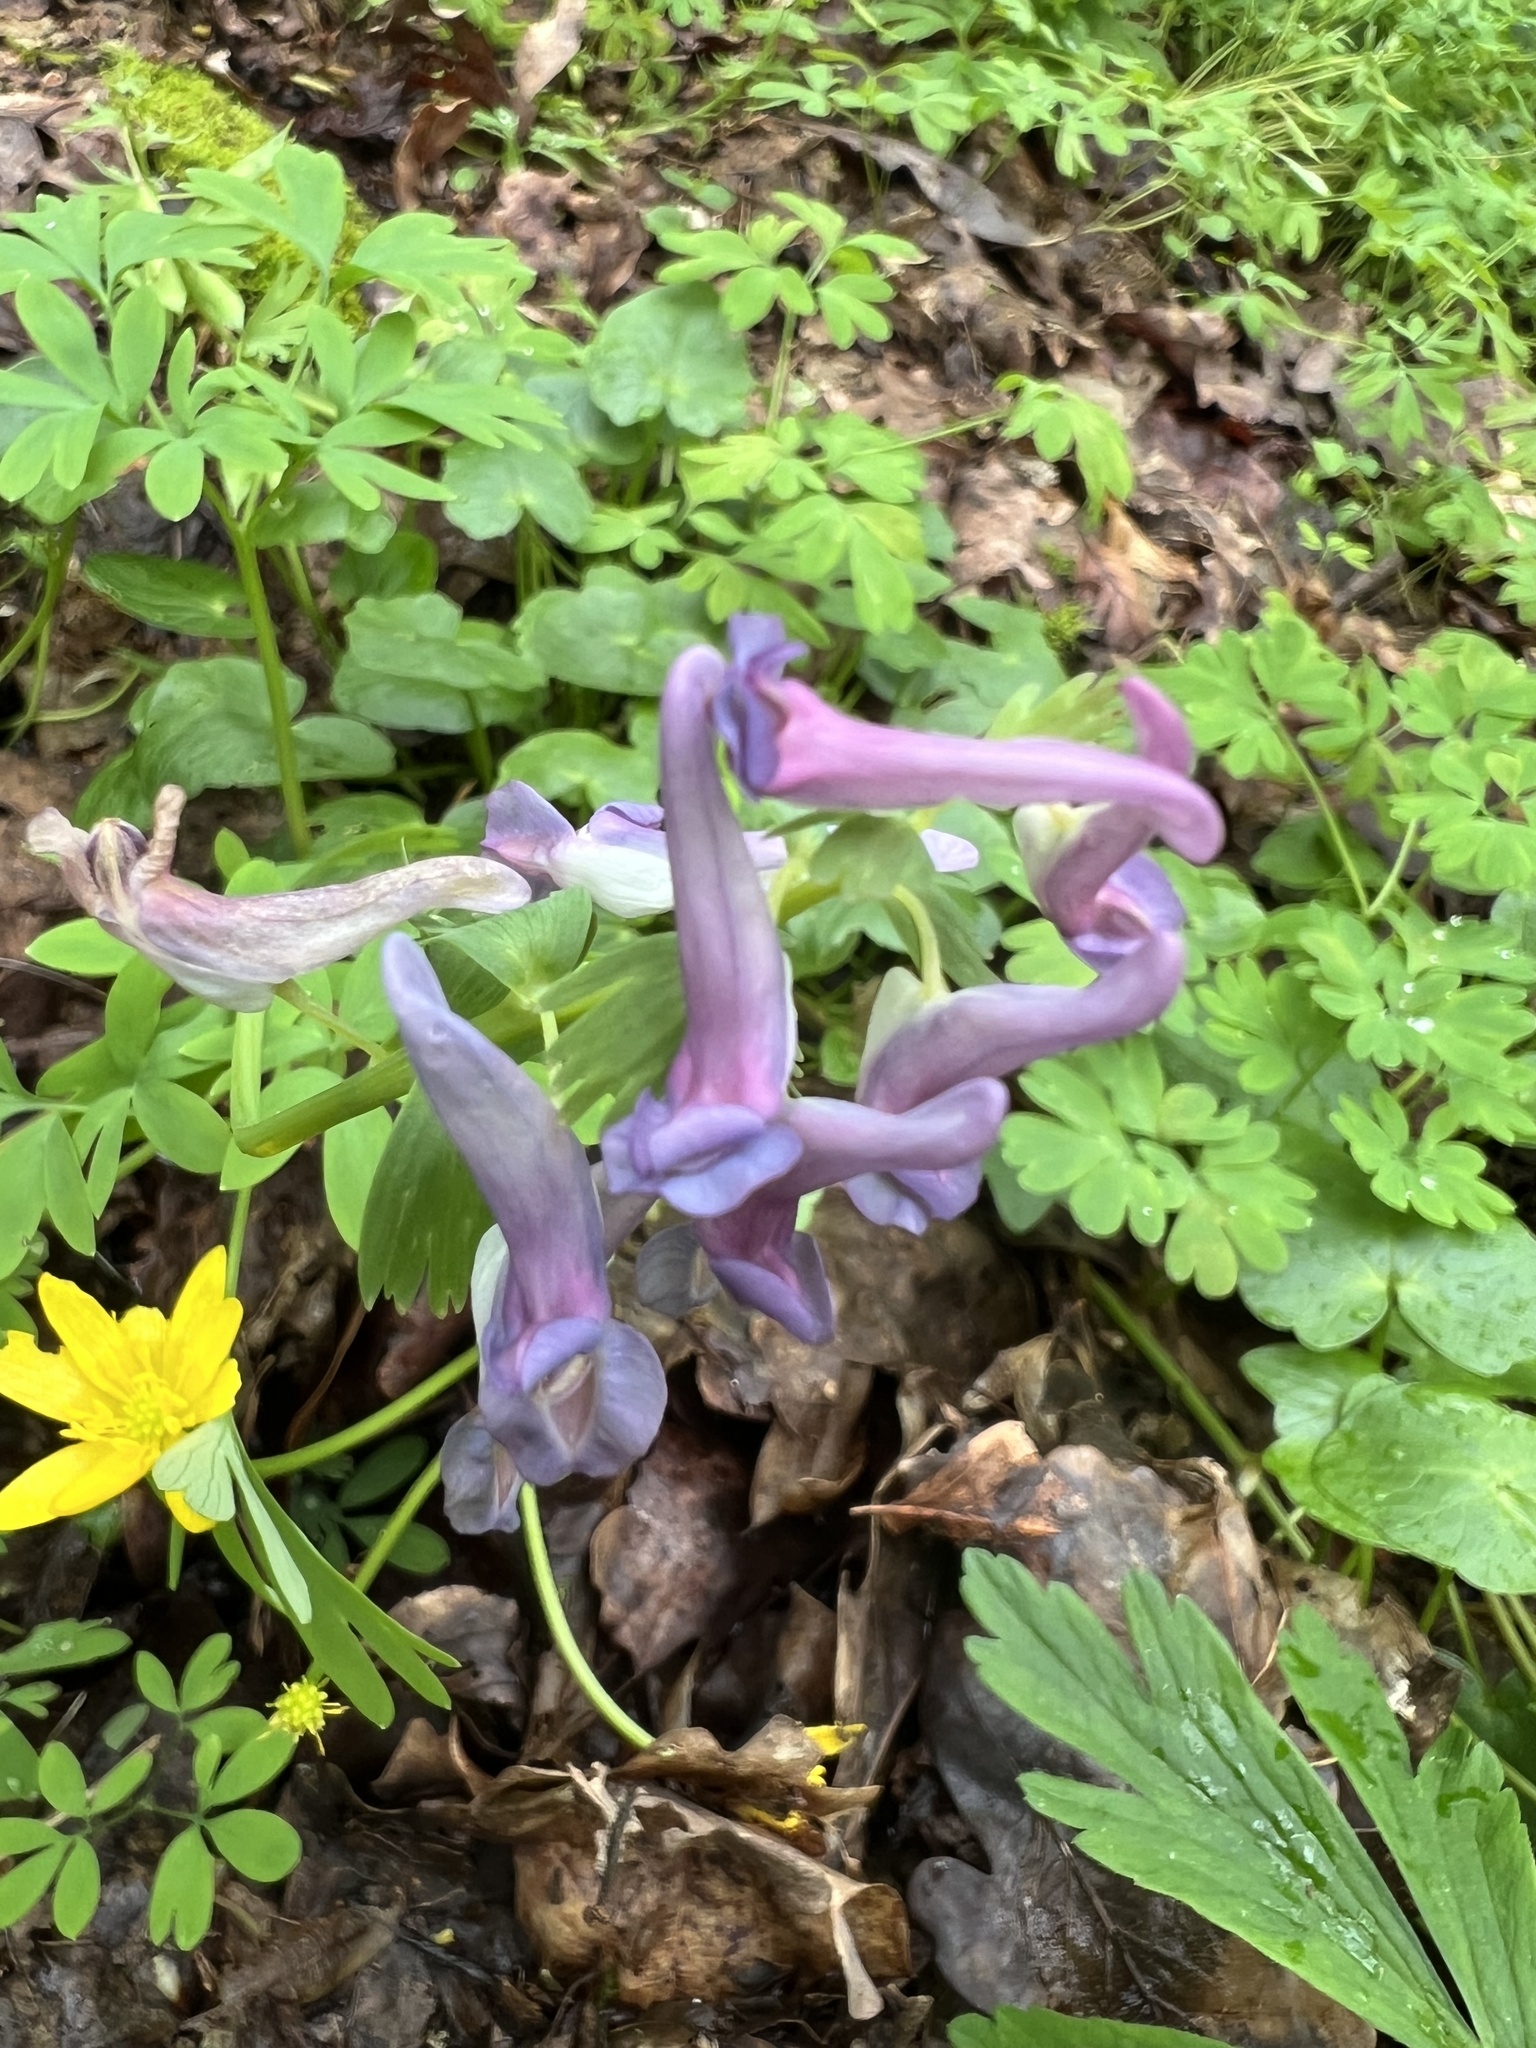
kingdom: Plantae
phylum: Tracheophyta
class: Magnoliopsida
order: Ranunculales
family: Papaveraceae
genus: Corydalis
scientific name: Corydalis solida
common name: Bird-in-a-bush
